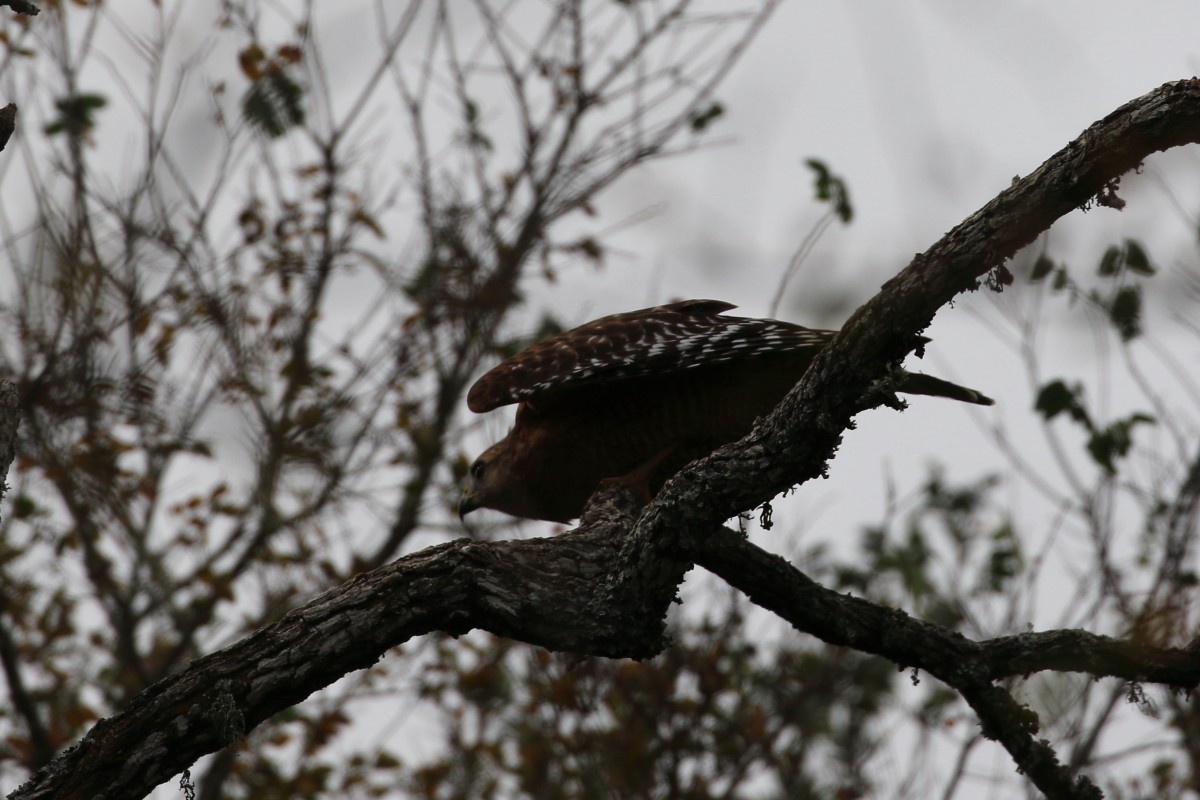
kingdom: Animalia
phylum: Chordata
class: Aves
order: Accipitriformes
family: Accipitridae
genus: Buteo
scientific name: Buteo lineatus
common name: Red-shouldered hawk
